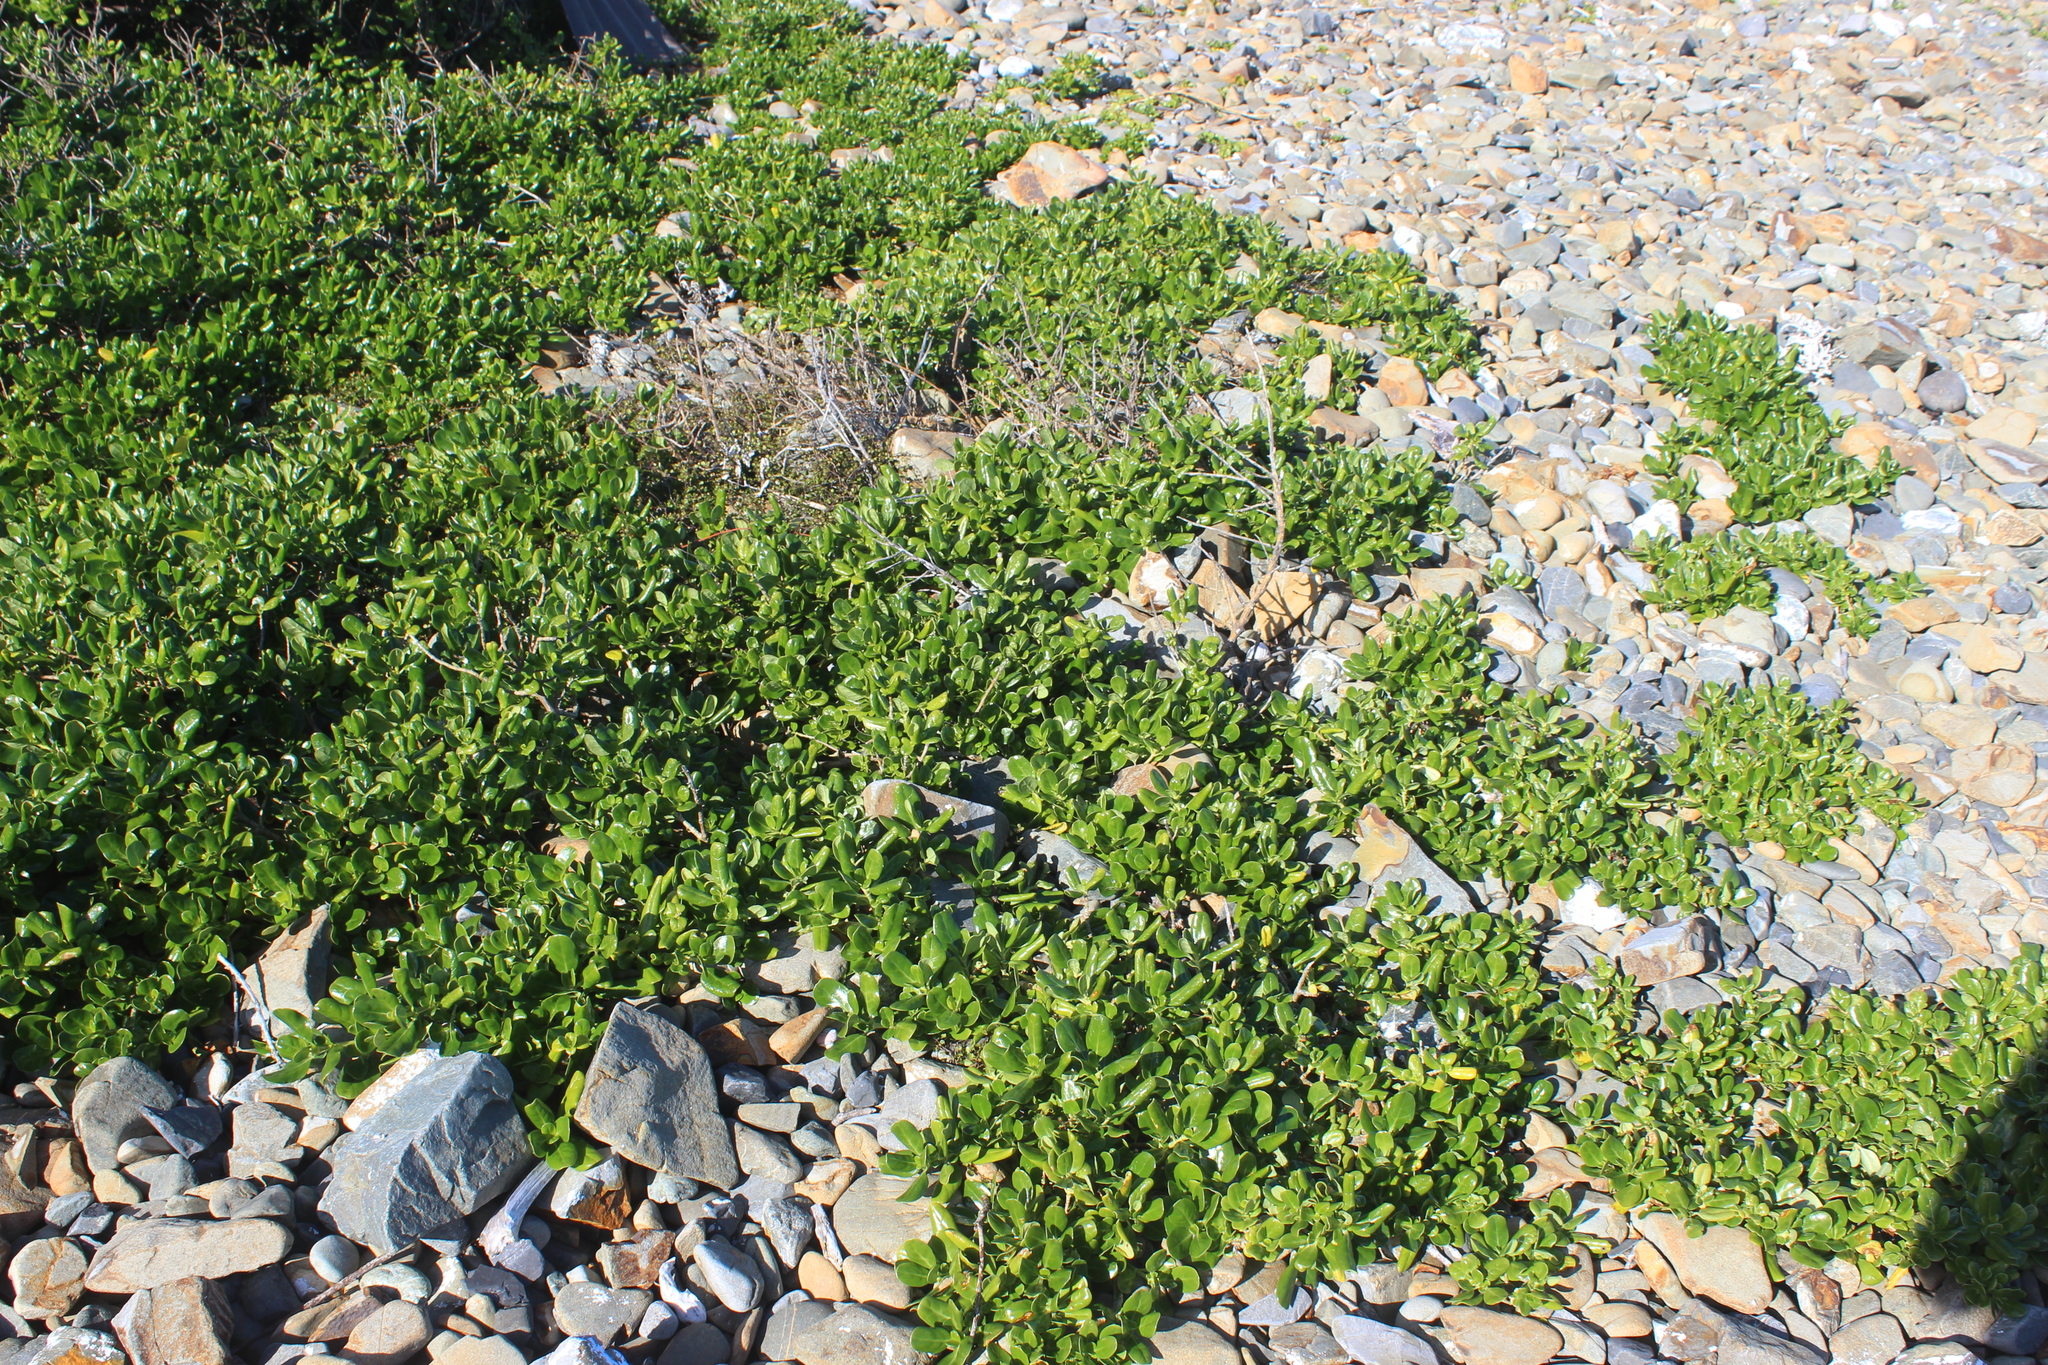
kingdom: Plantae
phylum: Tracheophyta
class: Magnoliopsida
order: Gentianales
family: Rubiaceae
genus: Coprosma
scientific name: Coprosma repens
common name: Tree bedstraw
